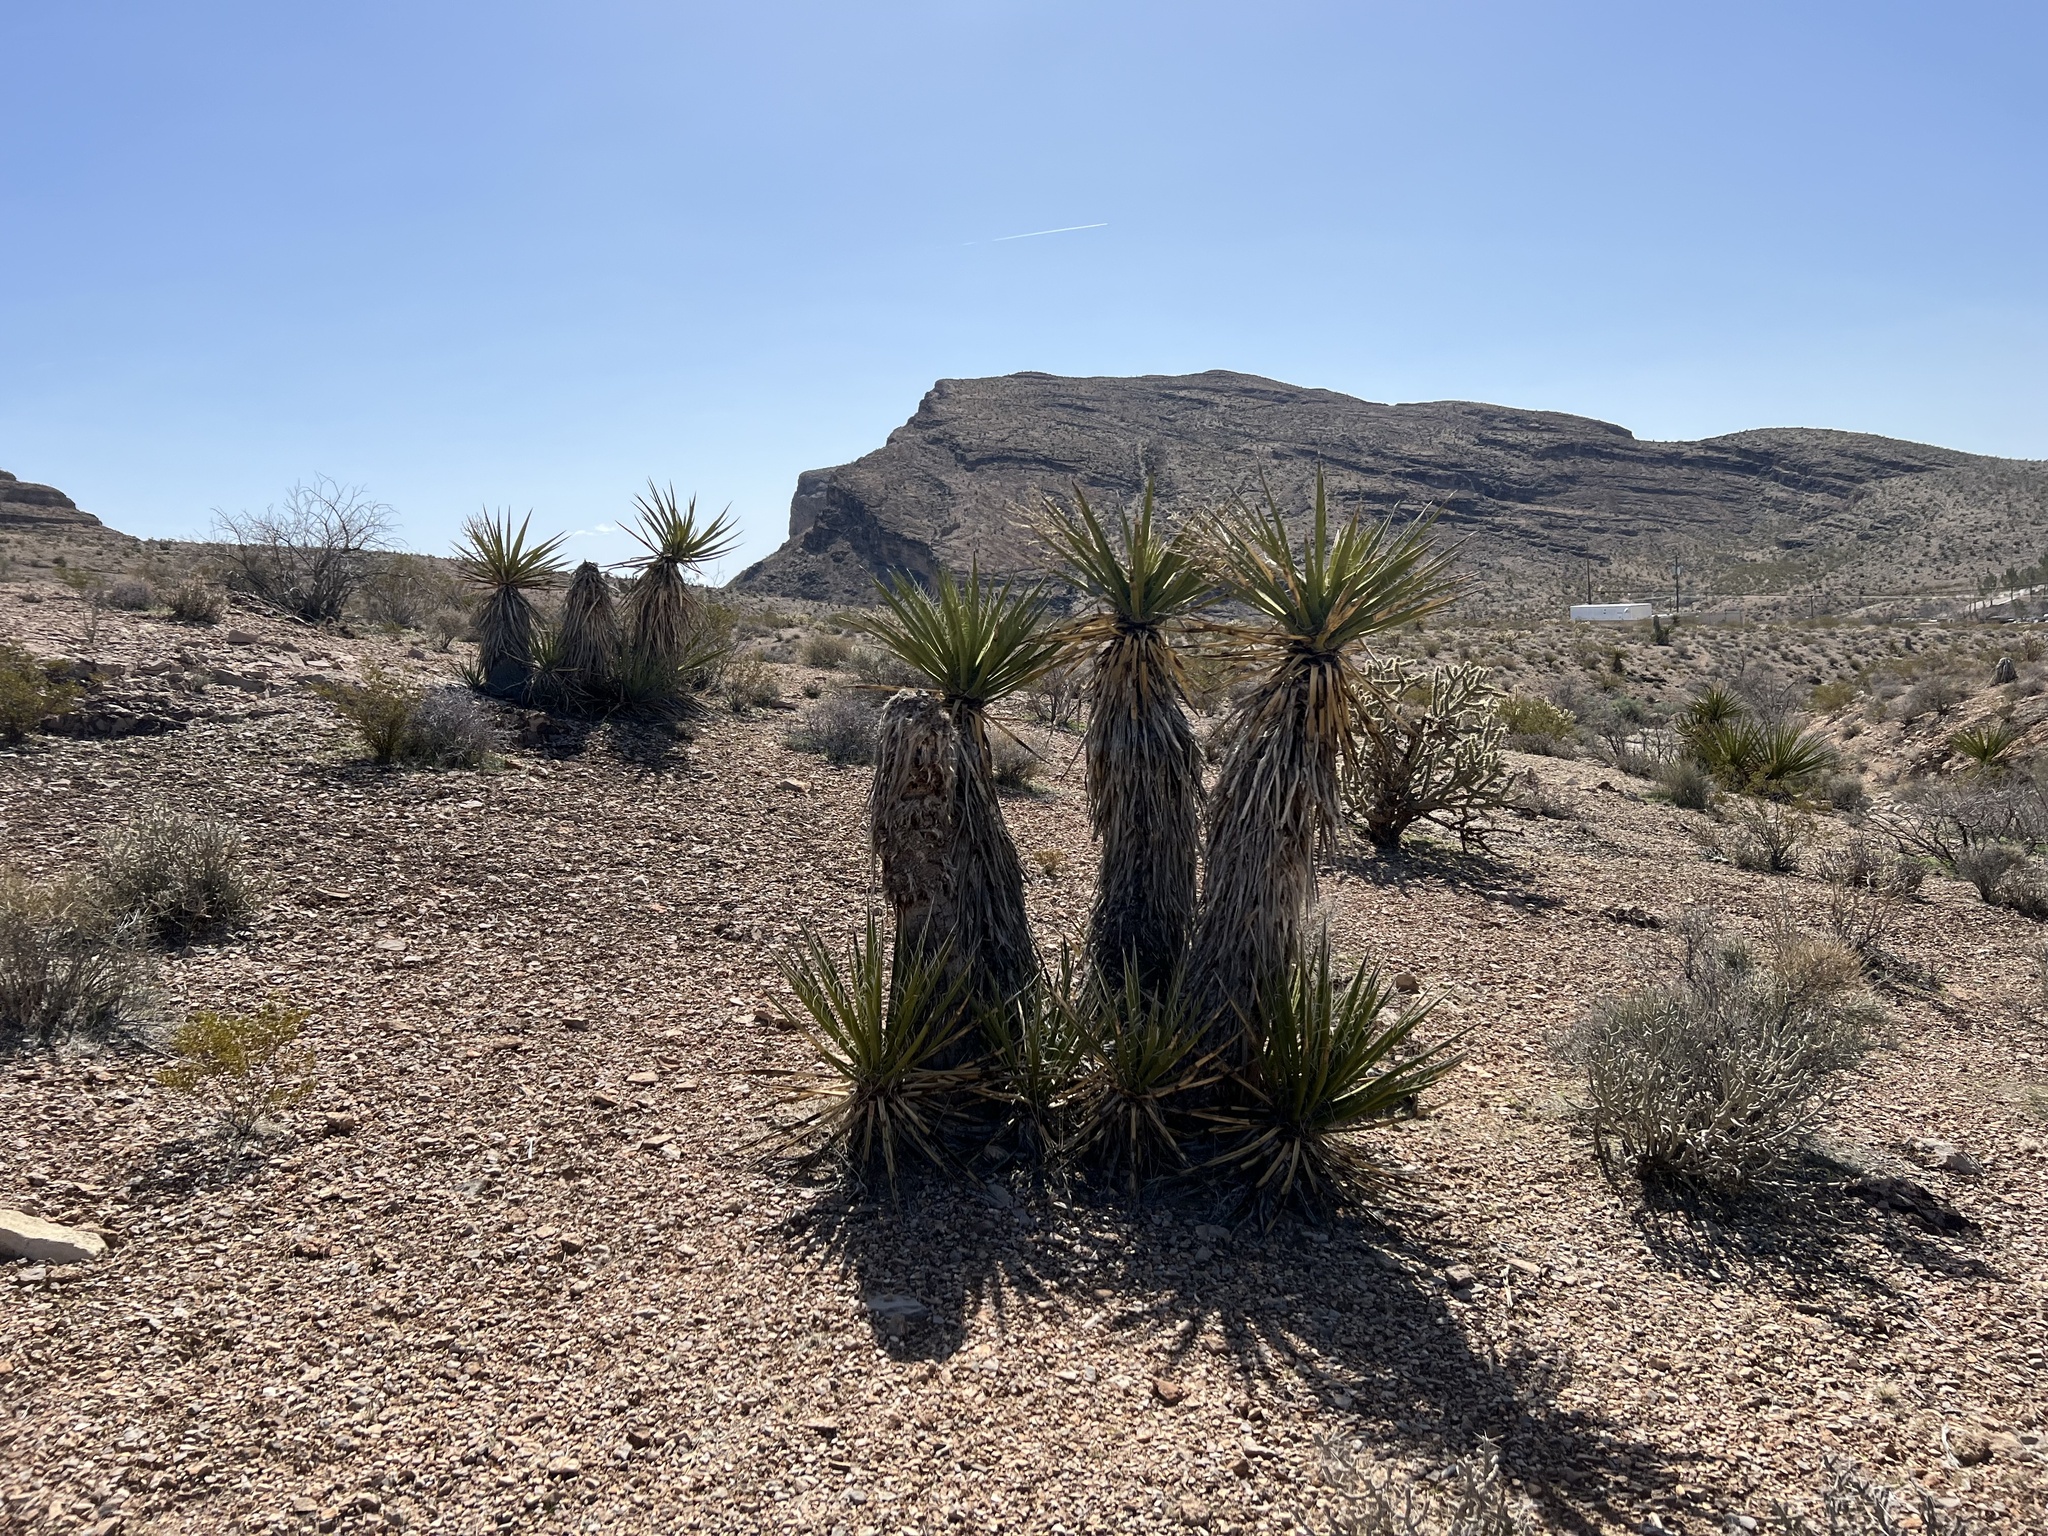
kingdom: Plantae
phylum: Tracheophyta
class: Liliopsida
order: Asparagales
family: Asparagaceae
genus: Yucca
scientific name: Yucca schidigera
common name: Mojave yucca
